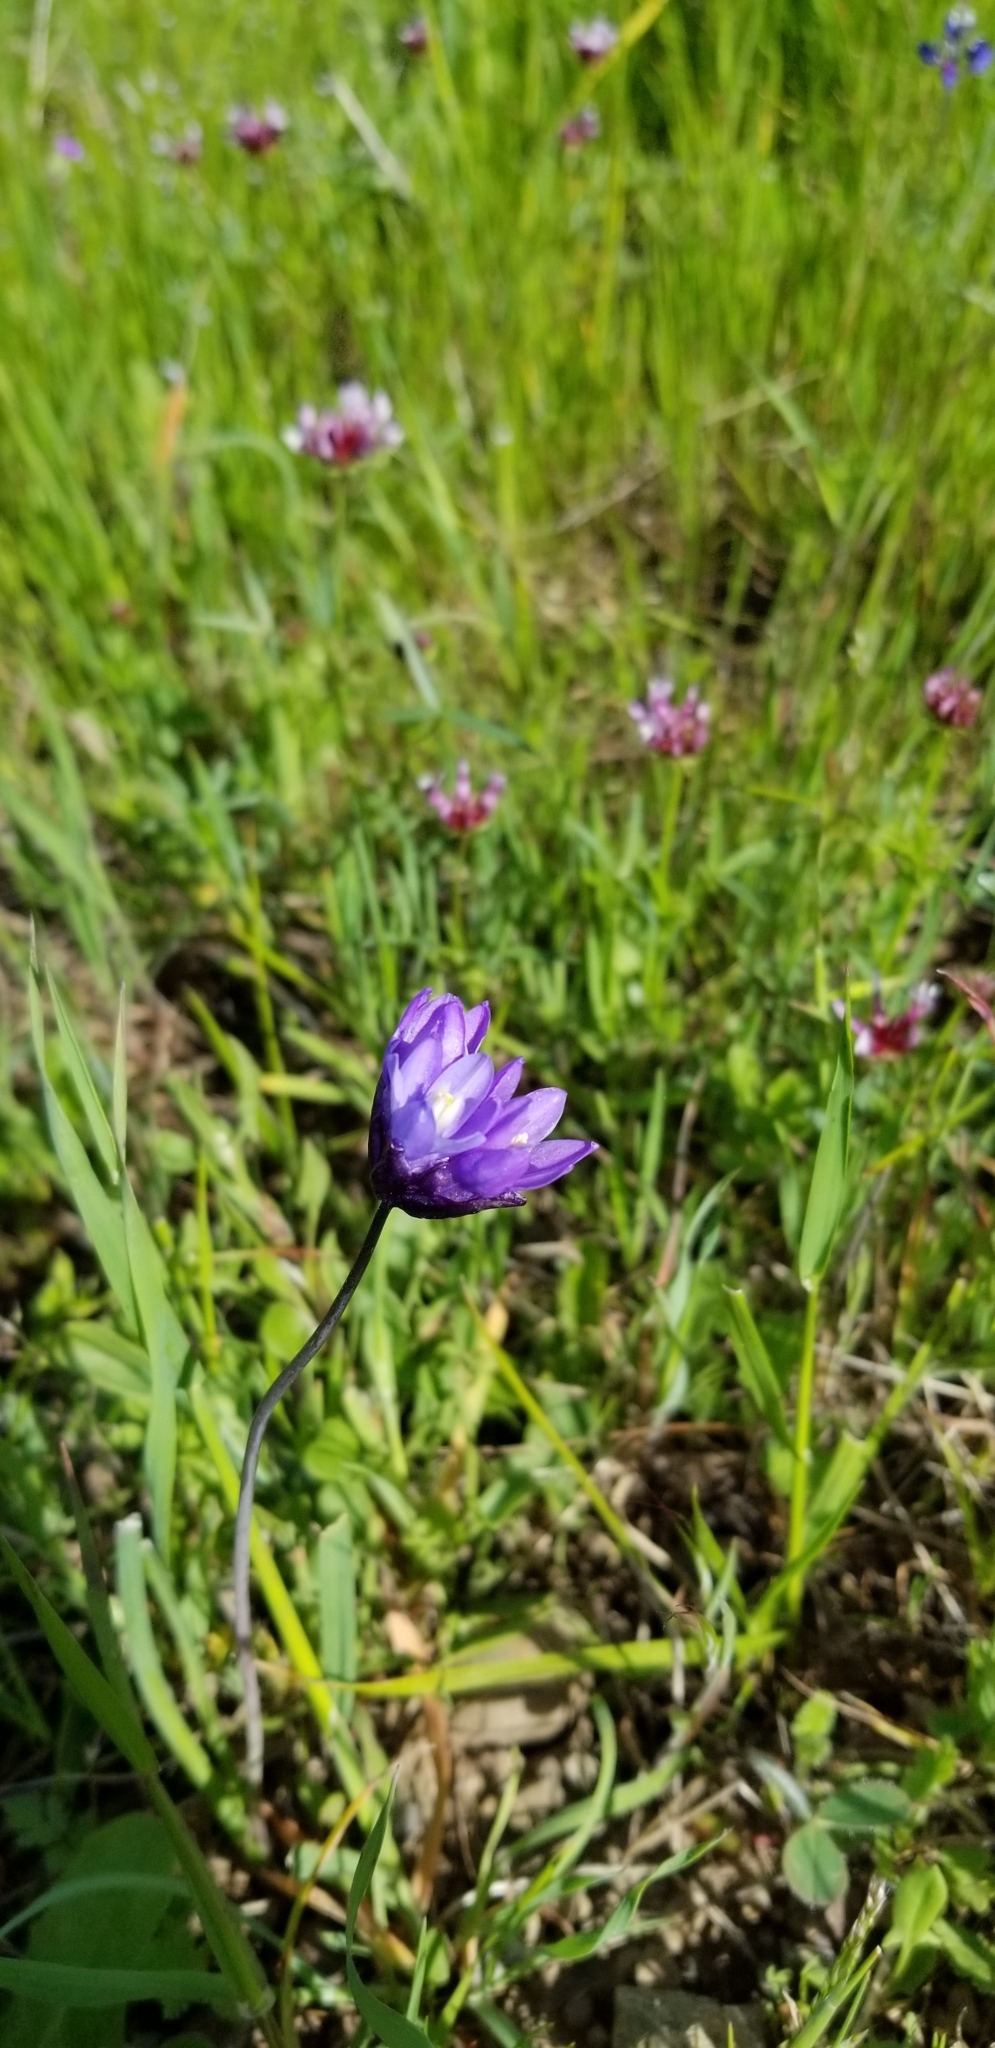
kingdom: Plantae
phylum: Tracheophyta
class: Liliopsida
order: Asparagales
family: Asparagaceae
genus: Dipterostemon
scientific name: Dipterostemon capitatus
